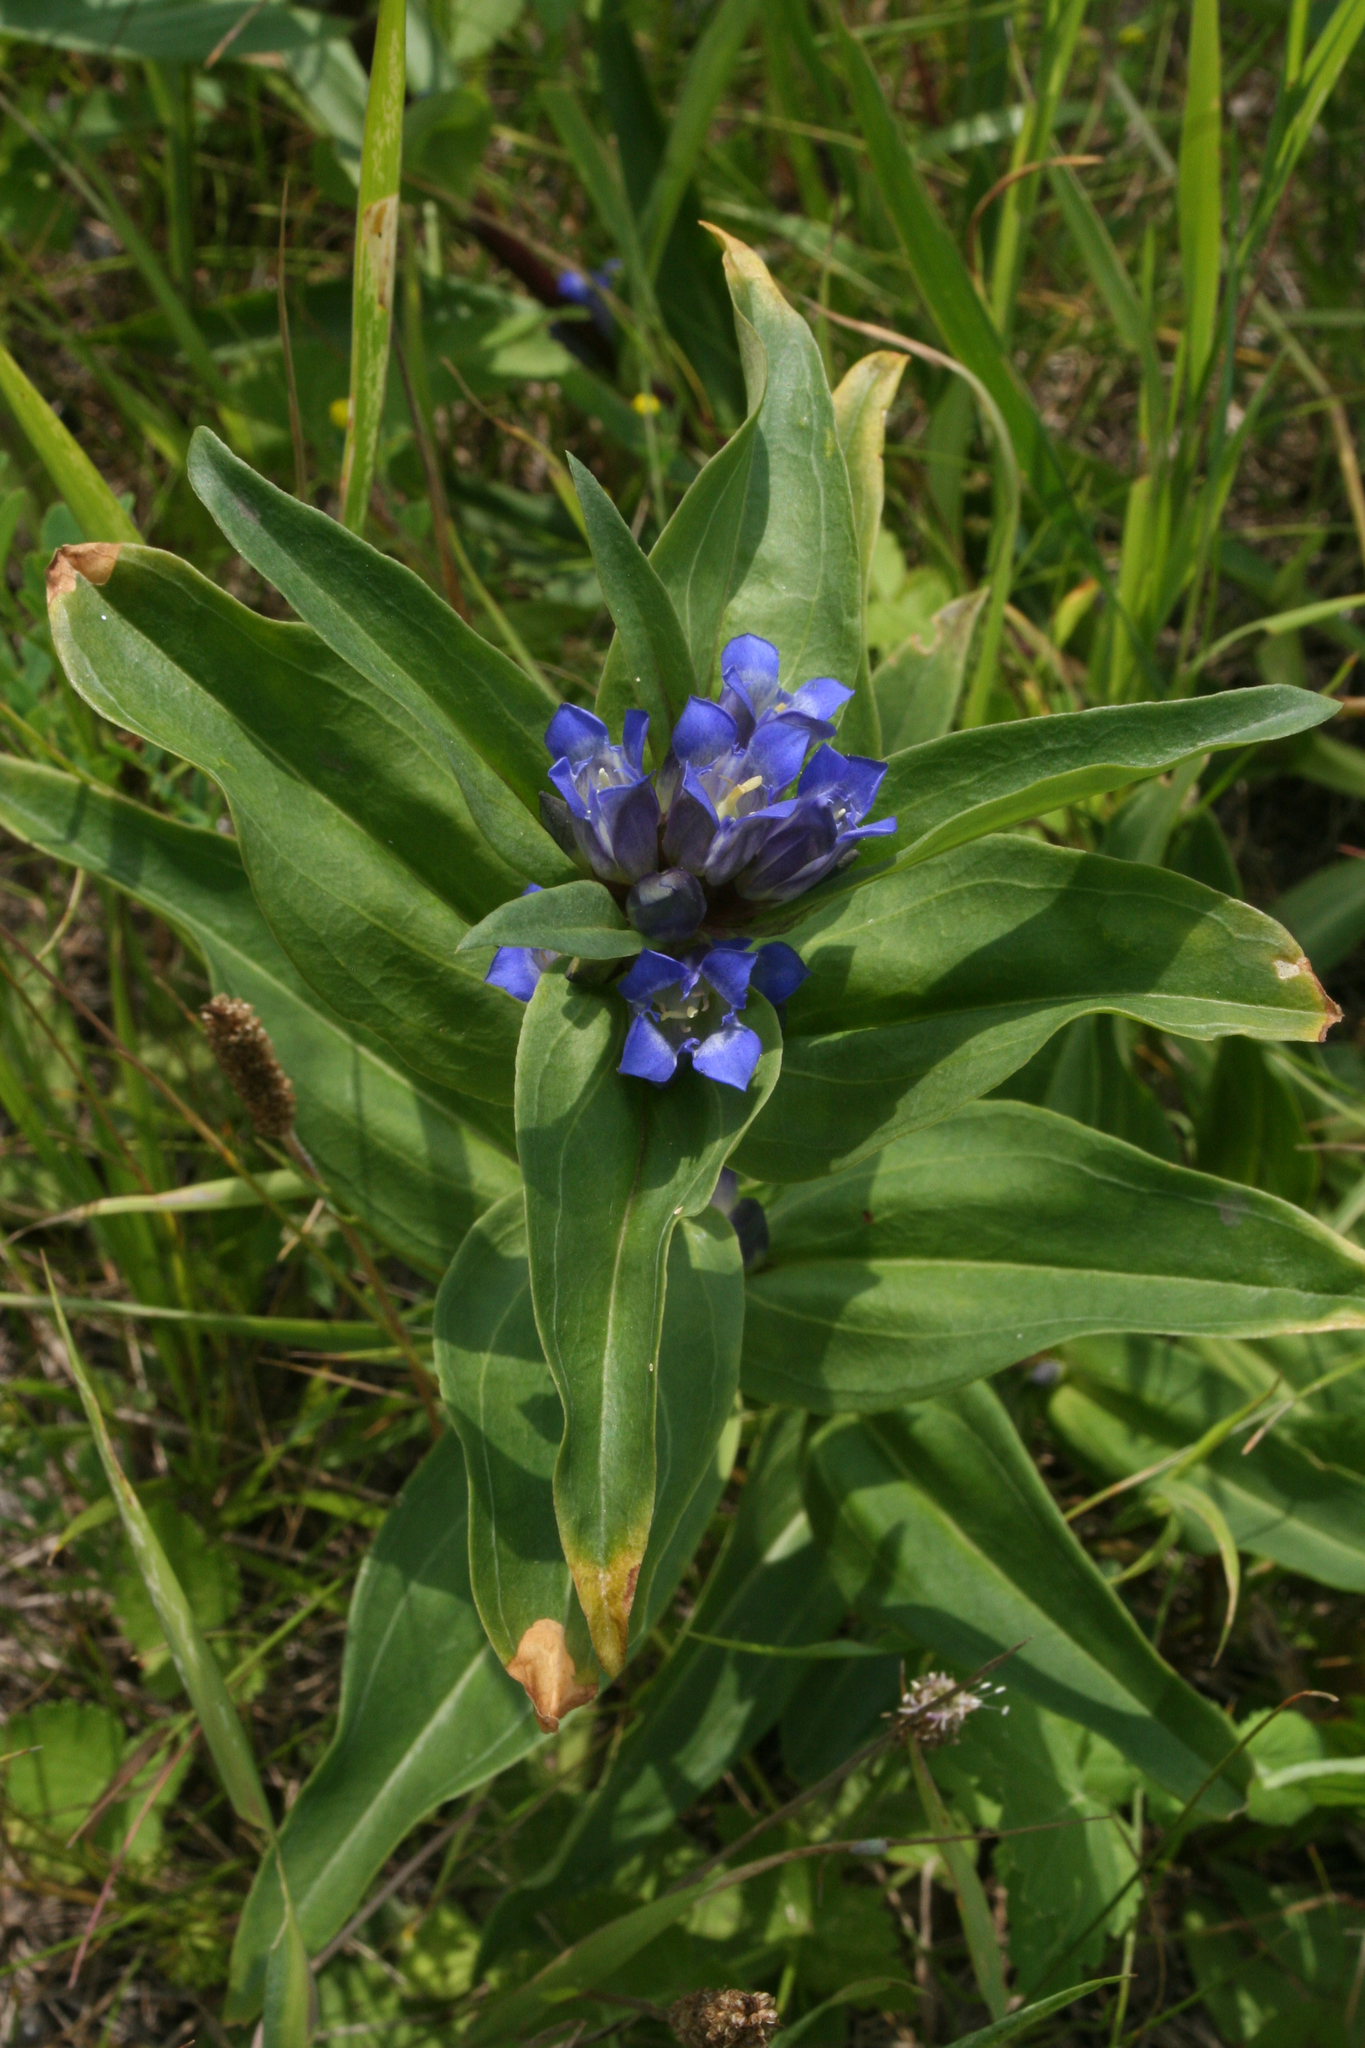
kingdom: Plantae
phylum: Tracheophyta
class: Magnoliopsida
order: Gentianales
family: Gentianaceae
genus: Gentiana
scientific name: Gentiana cruciata
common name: Cross gentian
